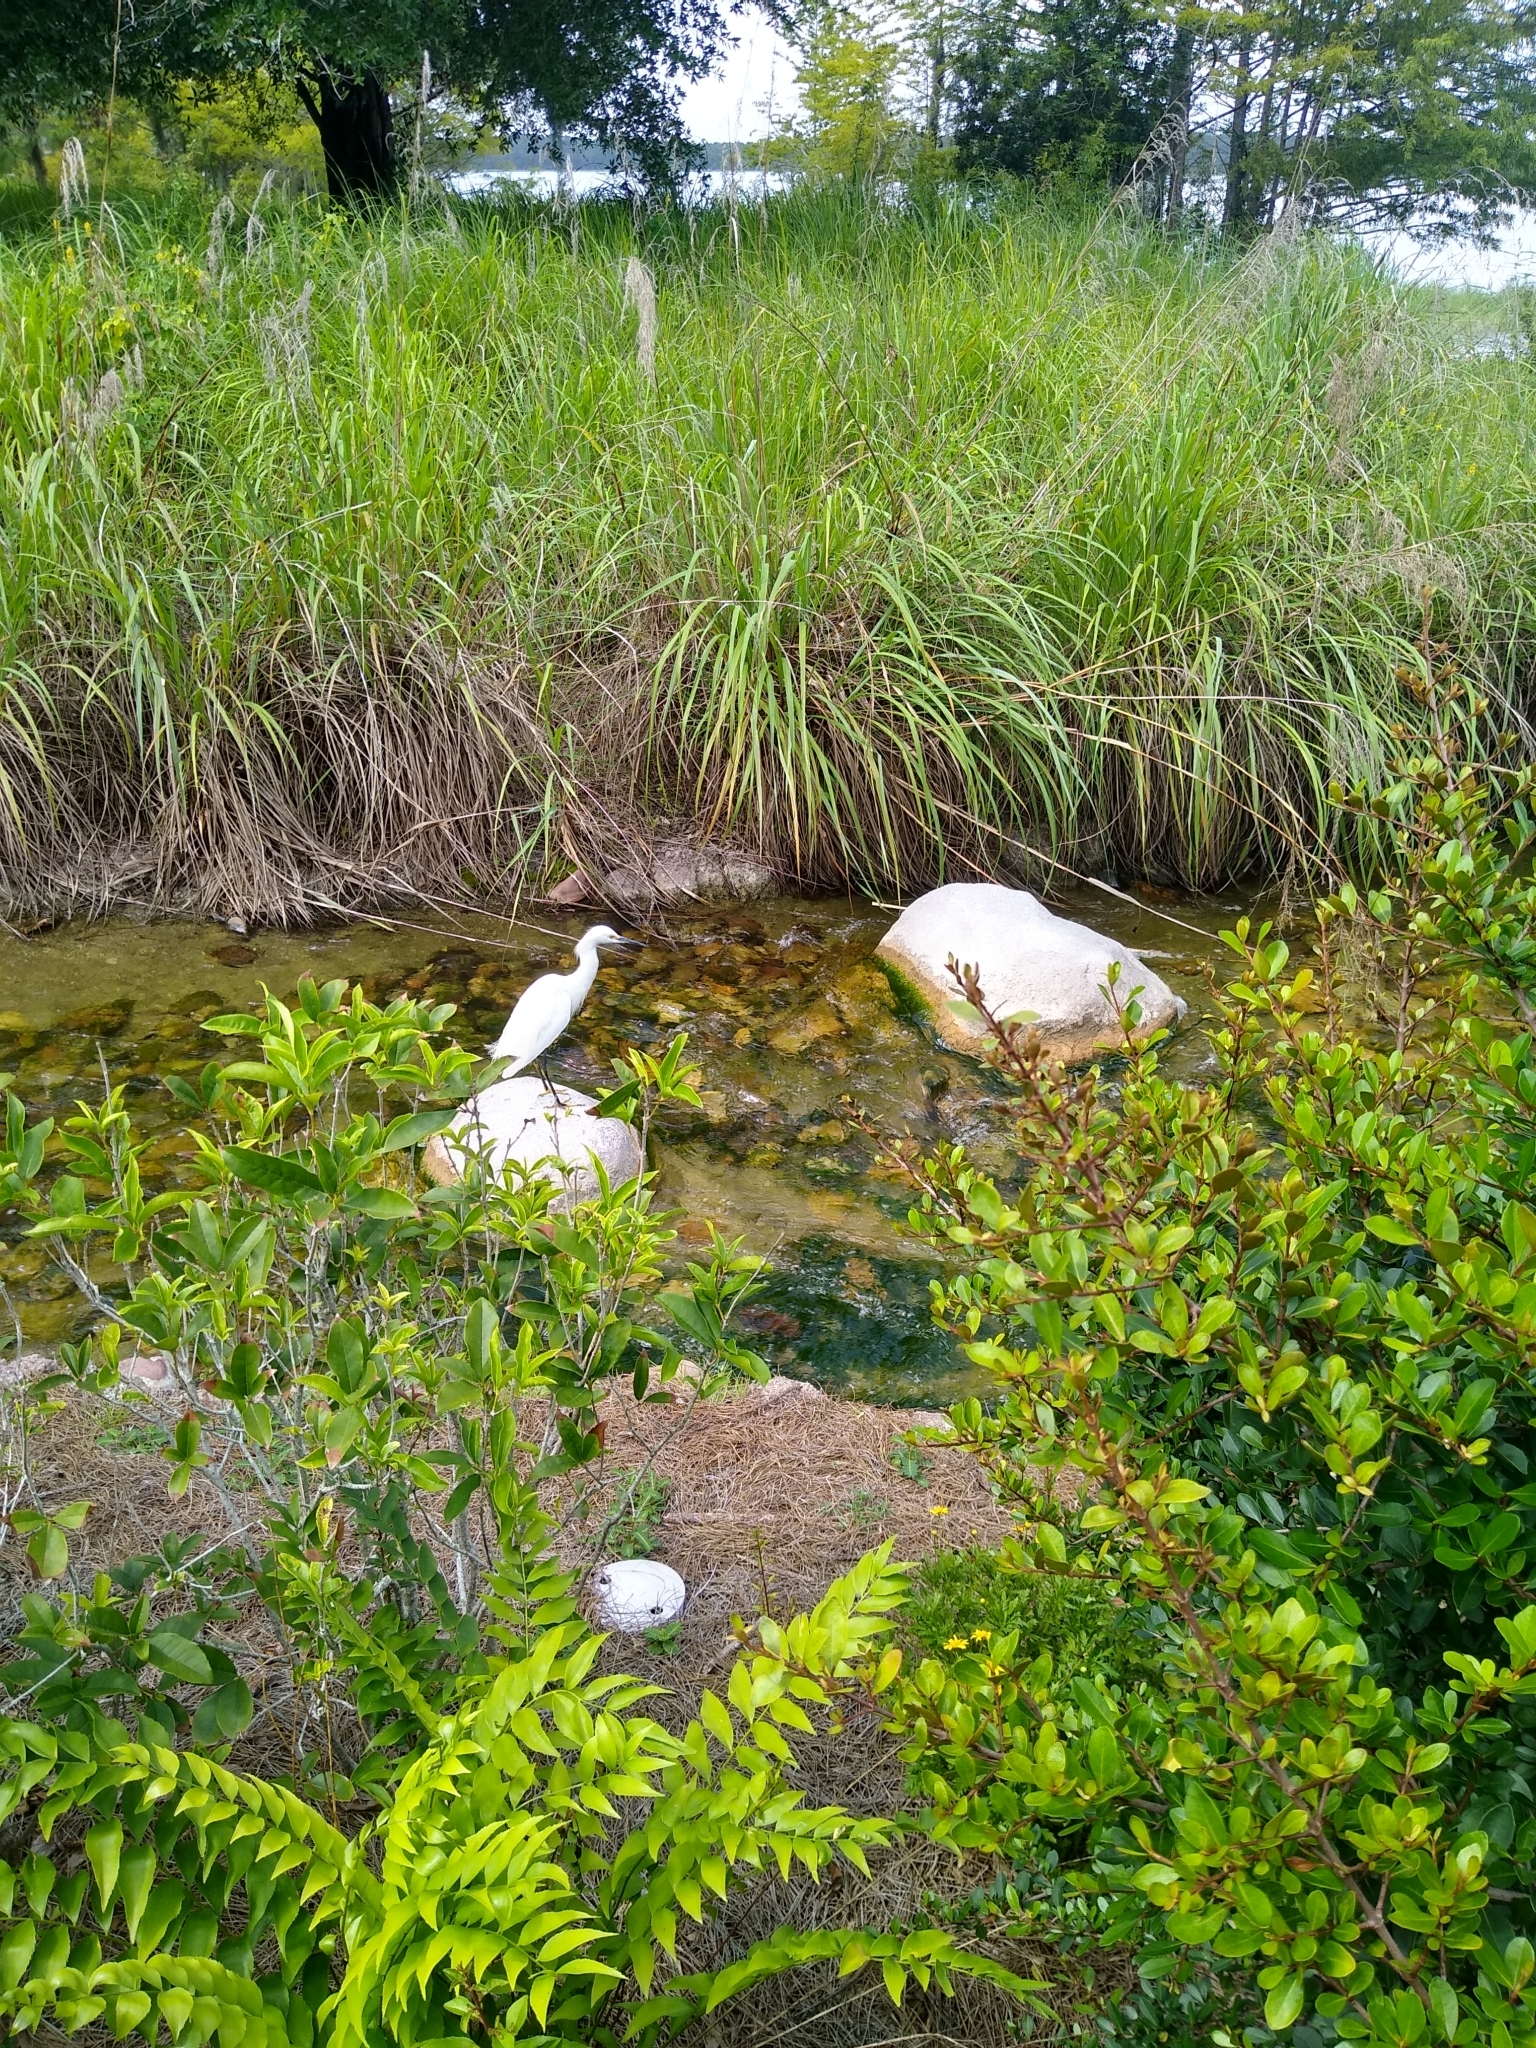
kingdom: Animalia
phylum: Chordata
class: Aves
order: Pelecaniformes
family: Ardeidae
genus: Egretta
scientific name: Egretta thula
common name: Snowy egret
